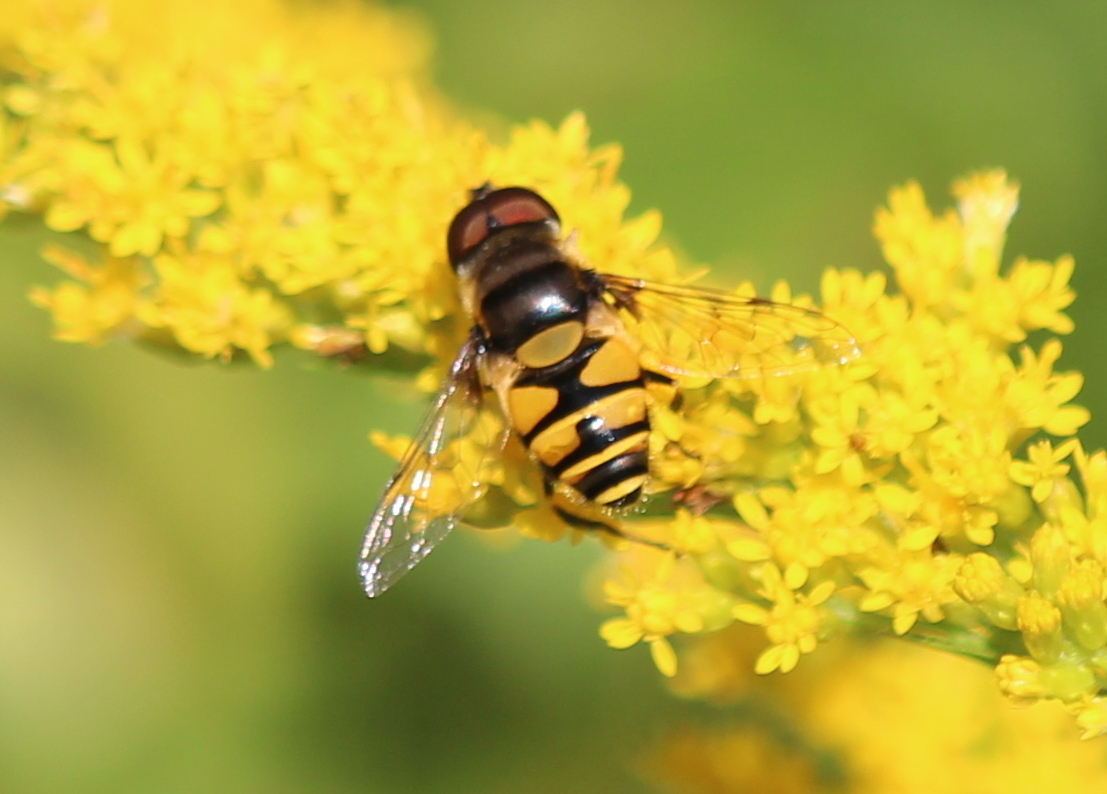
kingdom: Animalia
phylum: Arthropoda
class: Insecta
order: Diptera
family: Syrphidae
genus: Eristalis
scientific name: Eristalis transversa
